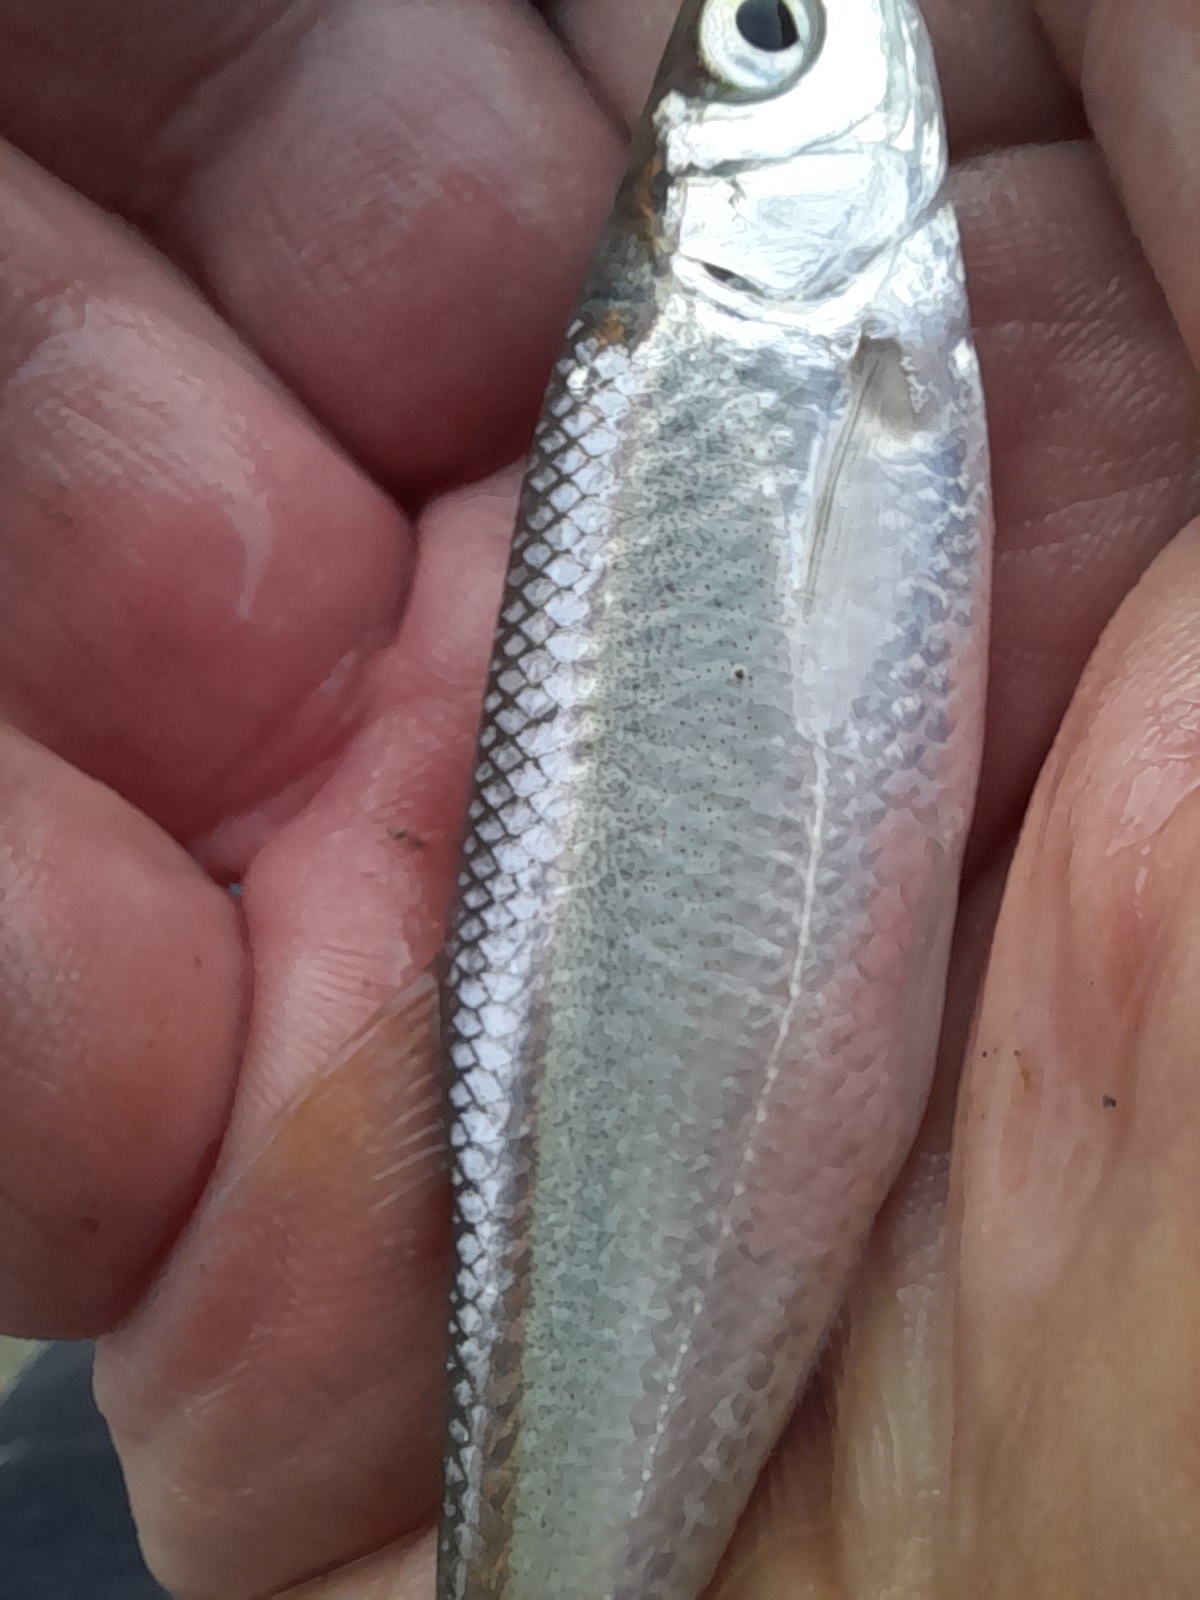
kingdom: Animalia
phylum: Chordata
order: Cypriniformes
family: Cyprinidae
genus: Alburnus
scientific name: Alburnus arborella
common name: Alborella
